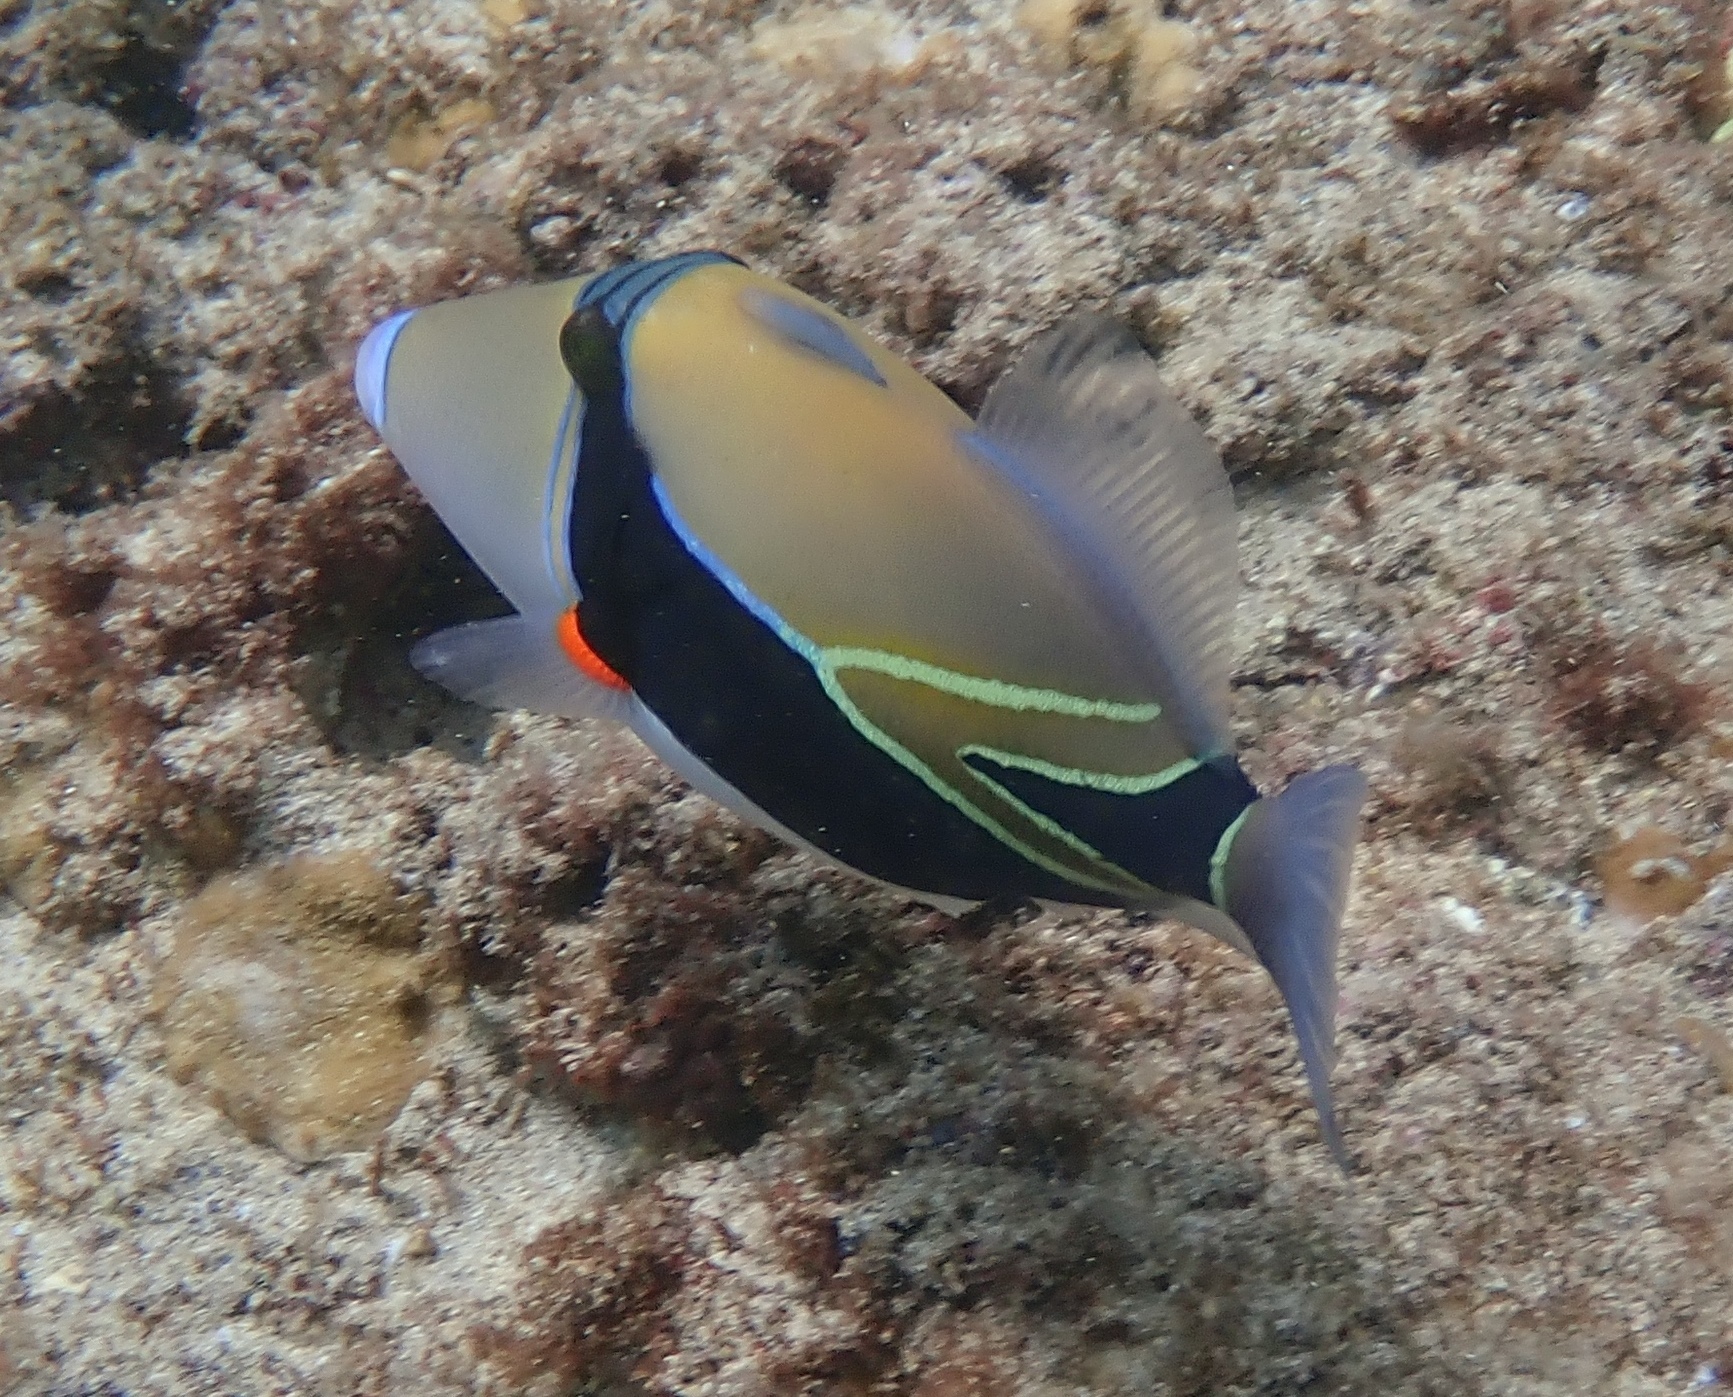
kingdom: Animalia
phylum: Chordata
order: Tetraodontiformes
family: Balistidae
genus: Rhinecanthus
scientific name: Rhinecanthus rectangulus
